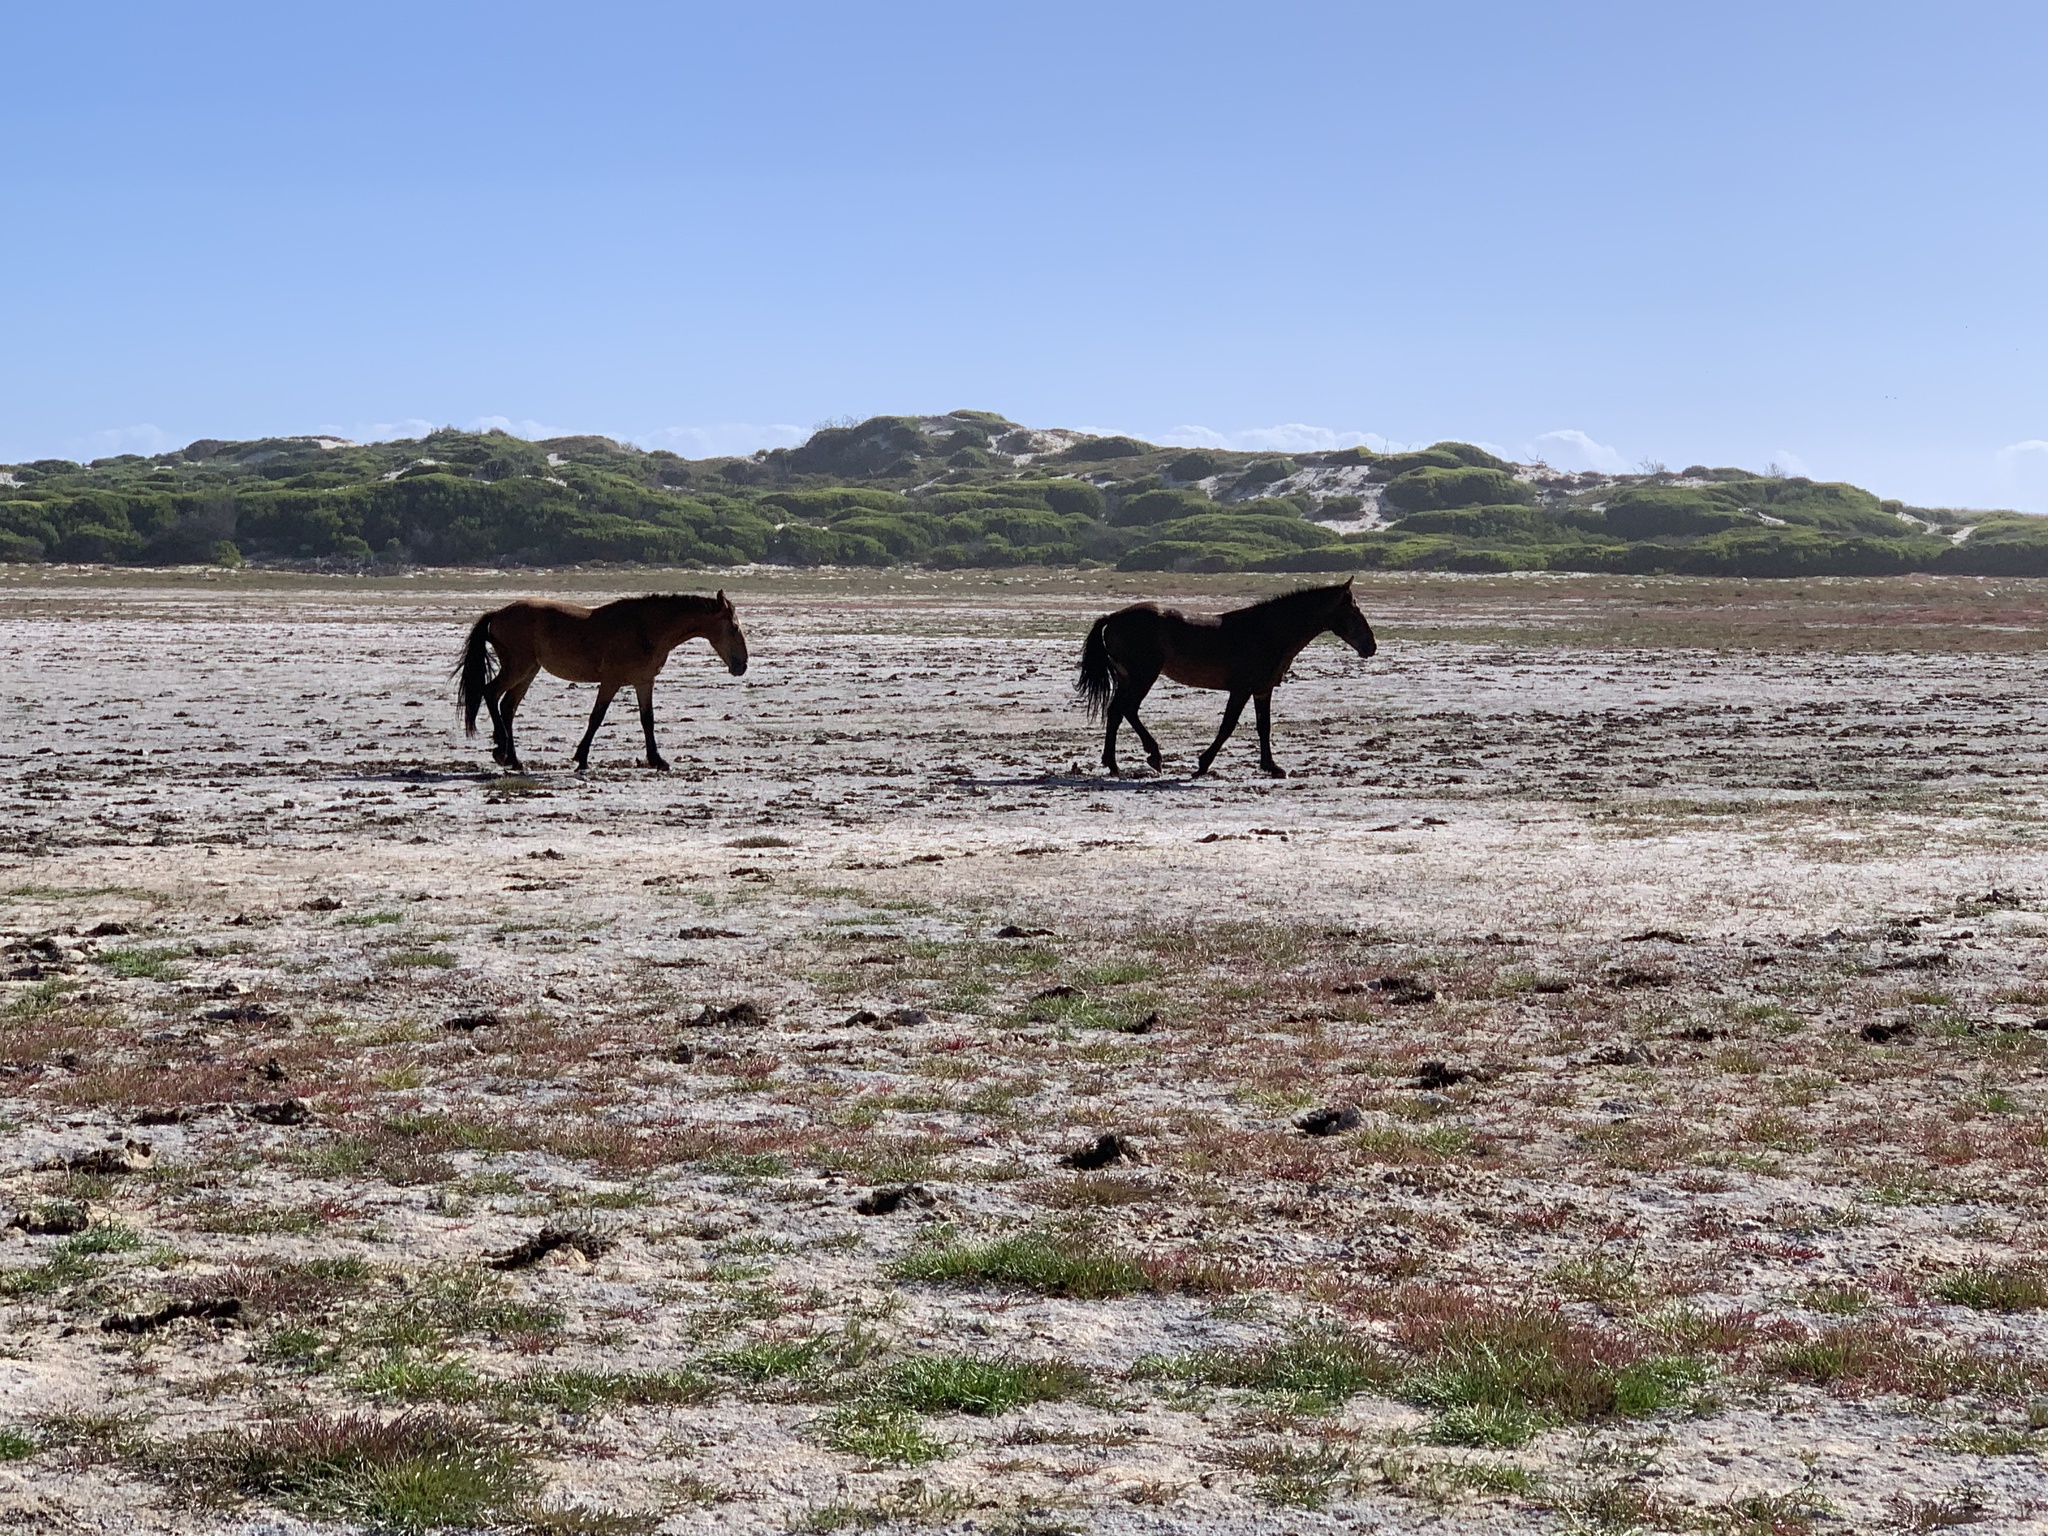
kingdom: Animalia
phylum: Chordata
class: Mammalia
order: Perissodactyla
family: Equidae
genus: Equus
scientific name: Equus caballus
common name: Horse
